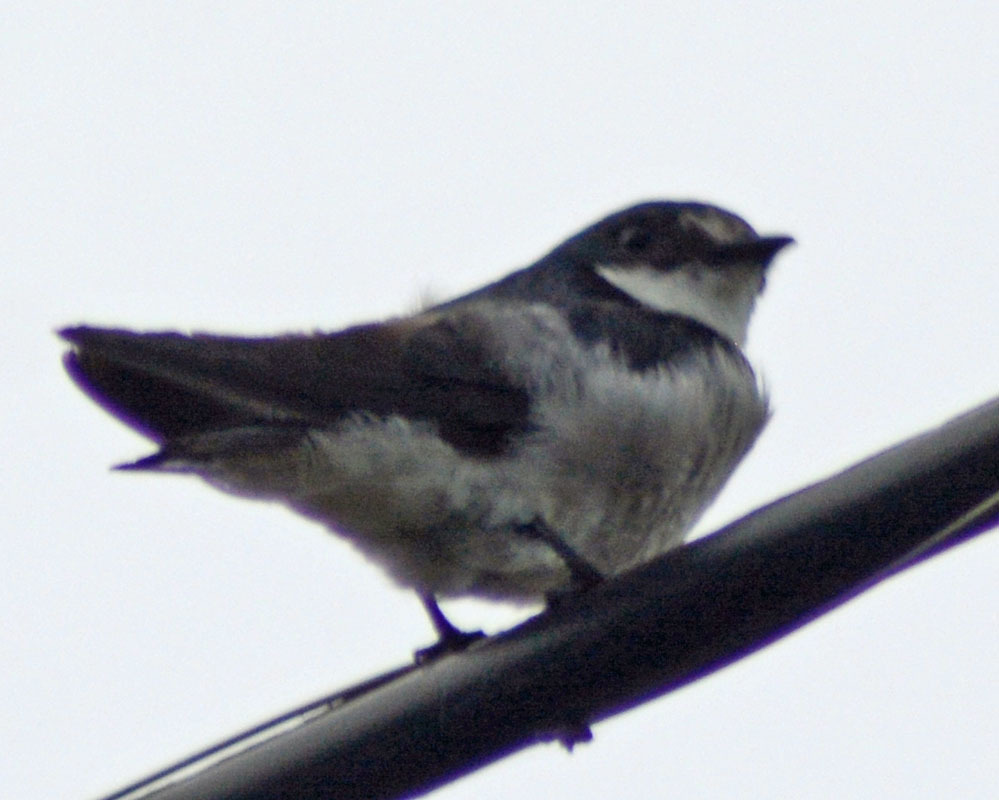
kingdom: Animalia
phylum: Chordata
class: Aves
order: Passeriformes
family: Hirundinidae
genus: Tachycineta
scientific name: Tachycineta albilinea
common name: Mangrove swallow
